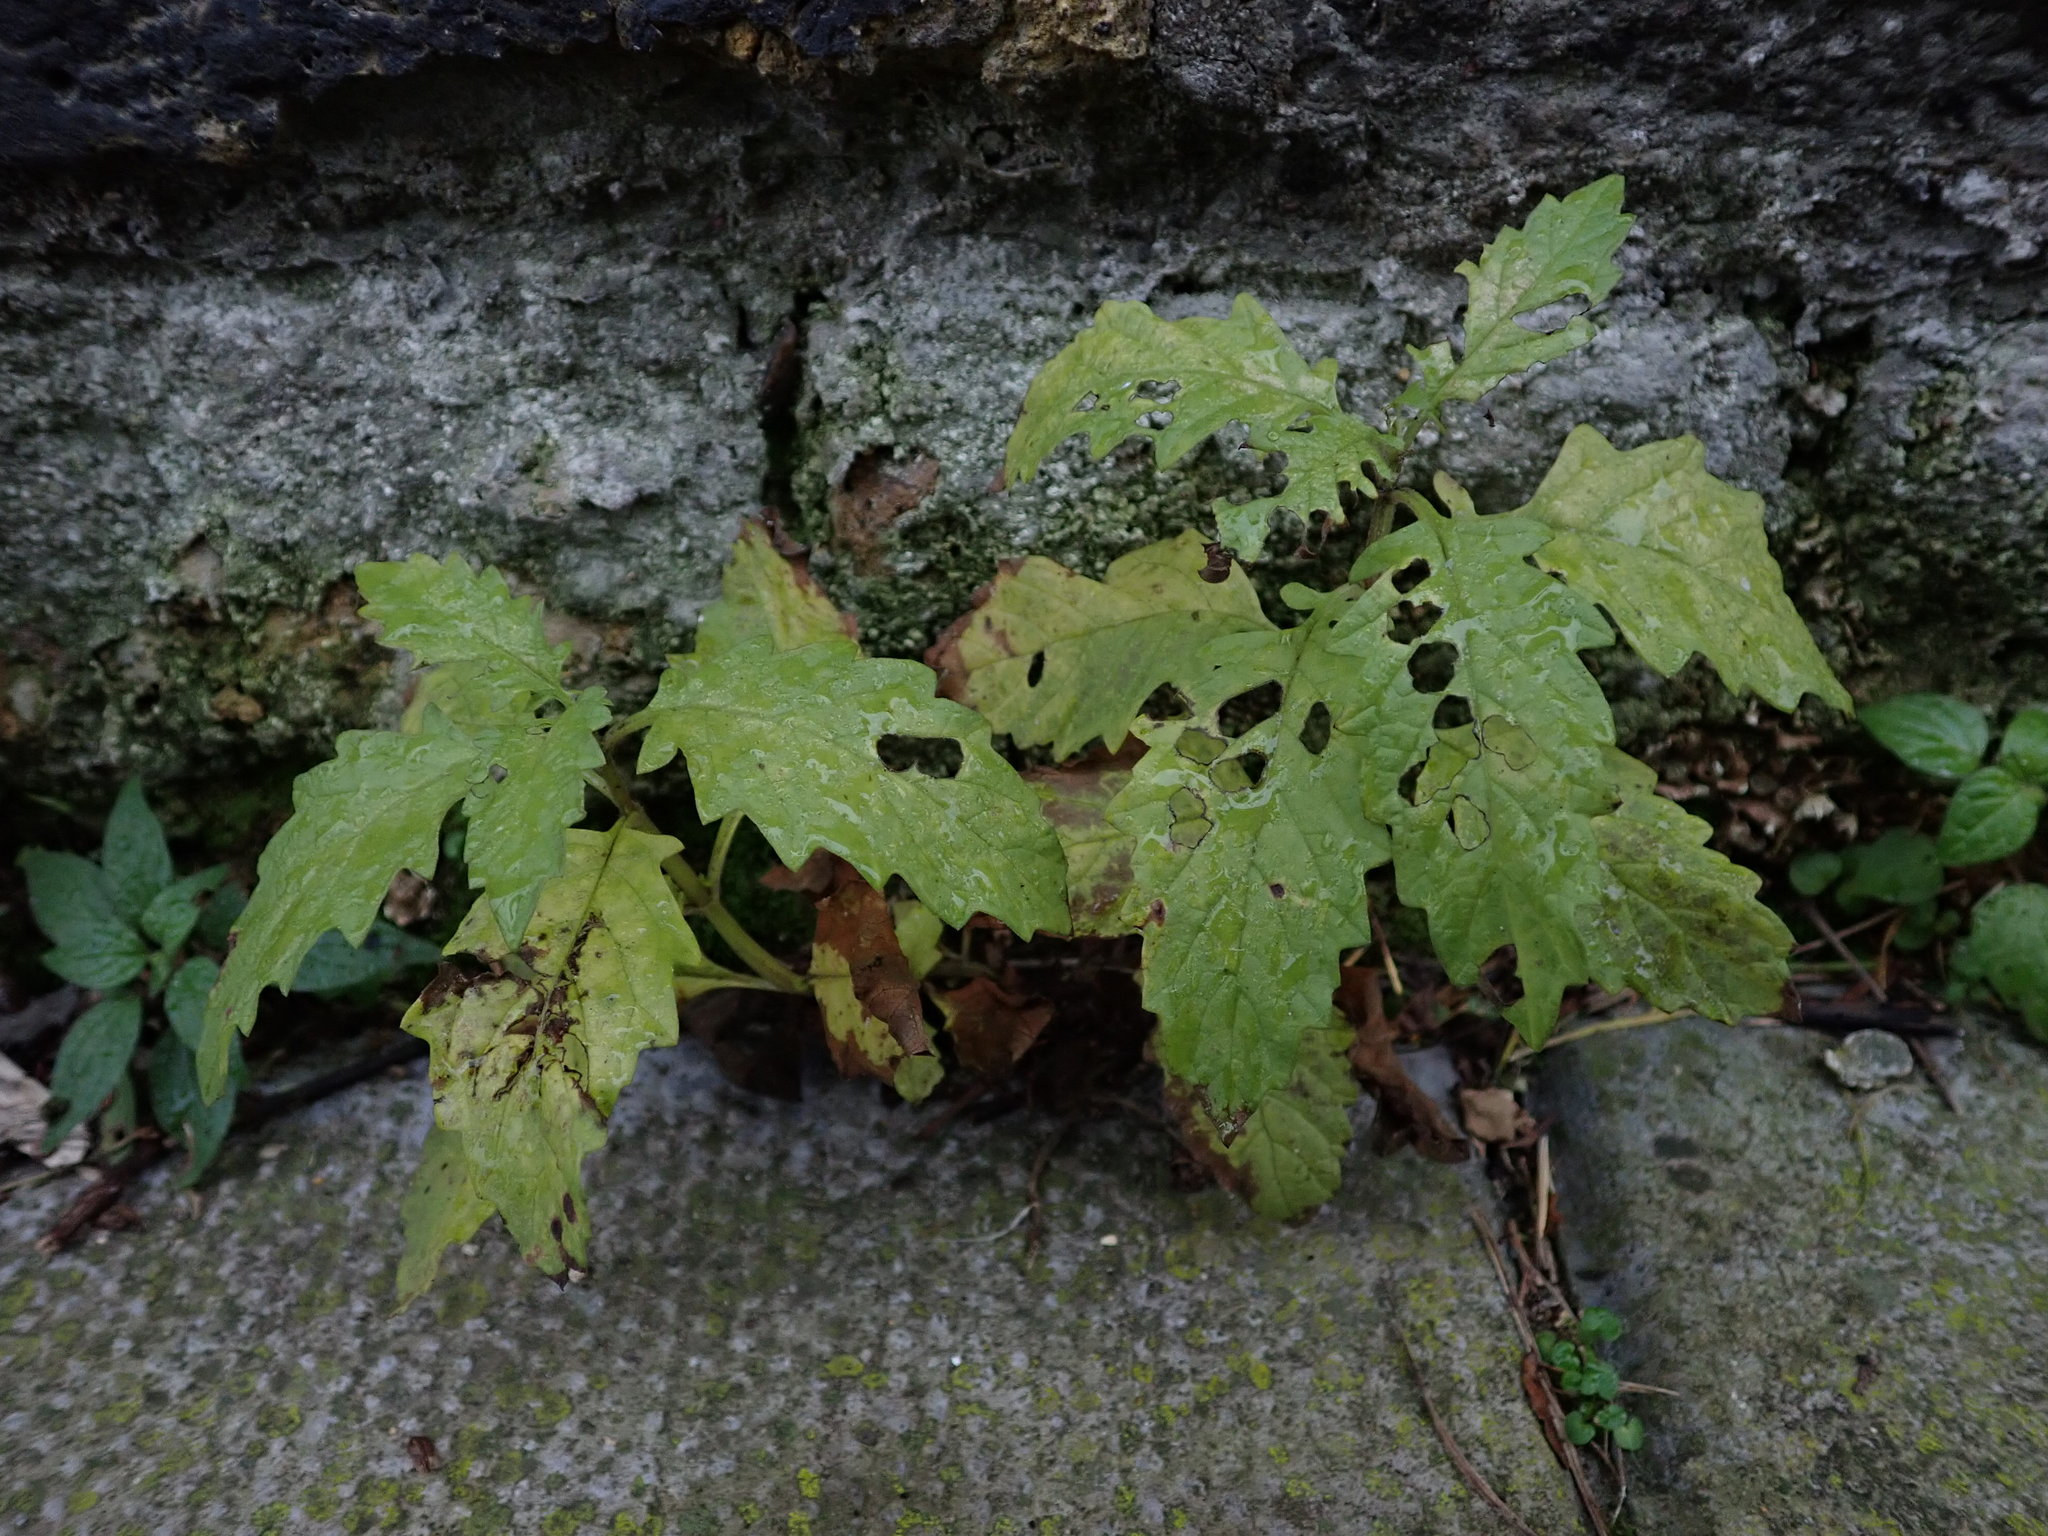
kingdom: Plantae
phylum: Tracheophyta
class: Magnoliopsida
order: Lamiales
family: Lamiaceae
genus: Lycopus
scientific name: Lycopus europaeus
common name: European bugleweed
